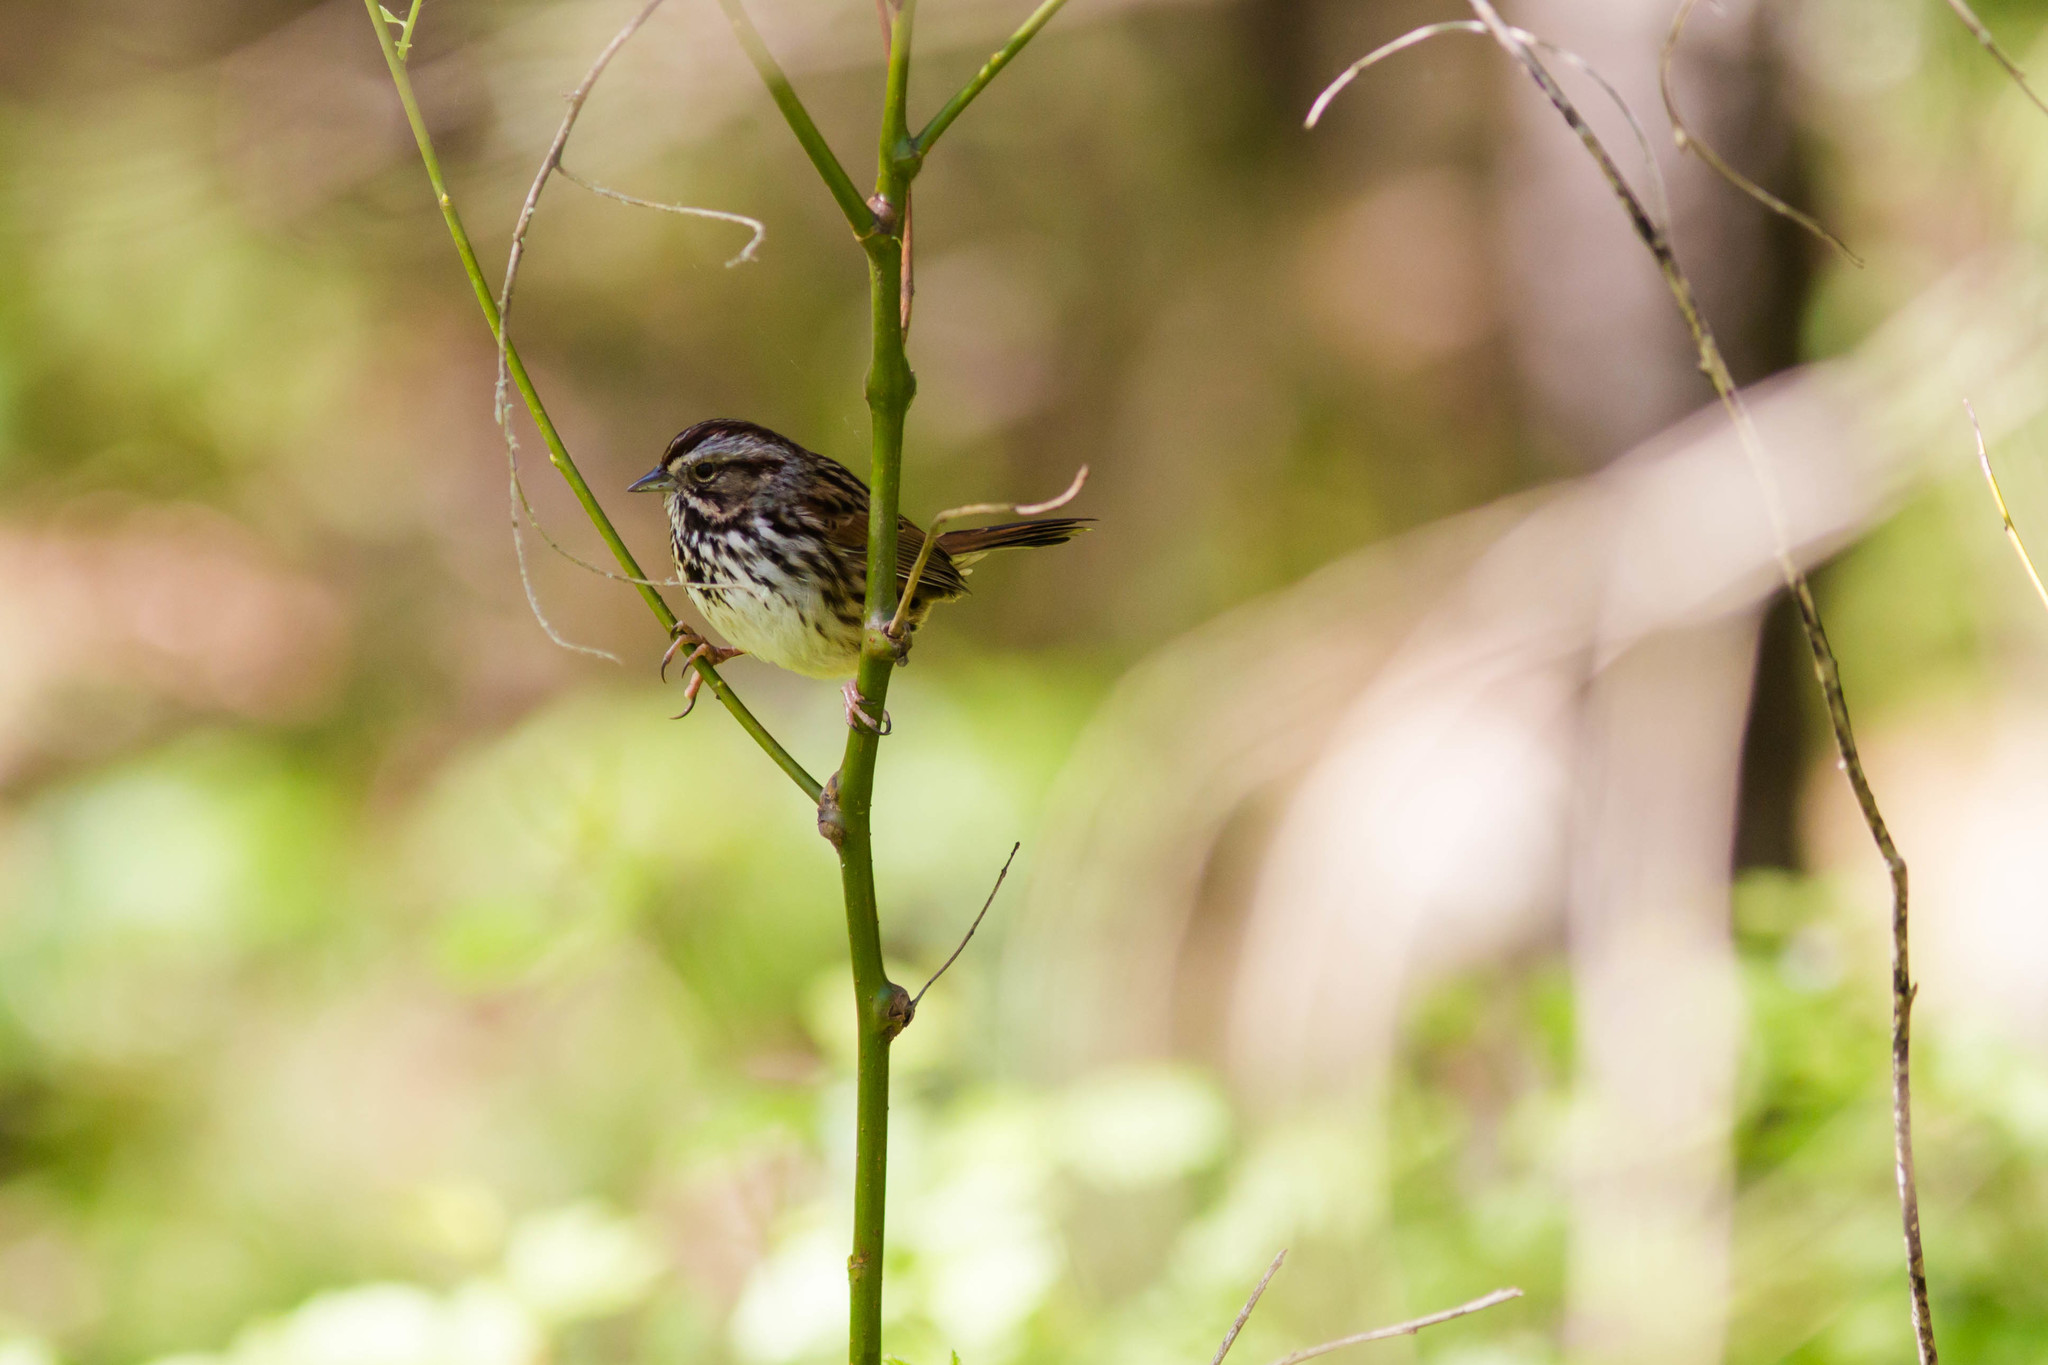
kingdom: Animalia
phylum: Chordata
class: Aves
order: Passeriformes
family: Passerellidae
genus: Melospiza
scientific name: Melospiza melodia
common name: Song sparrow
